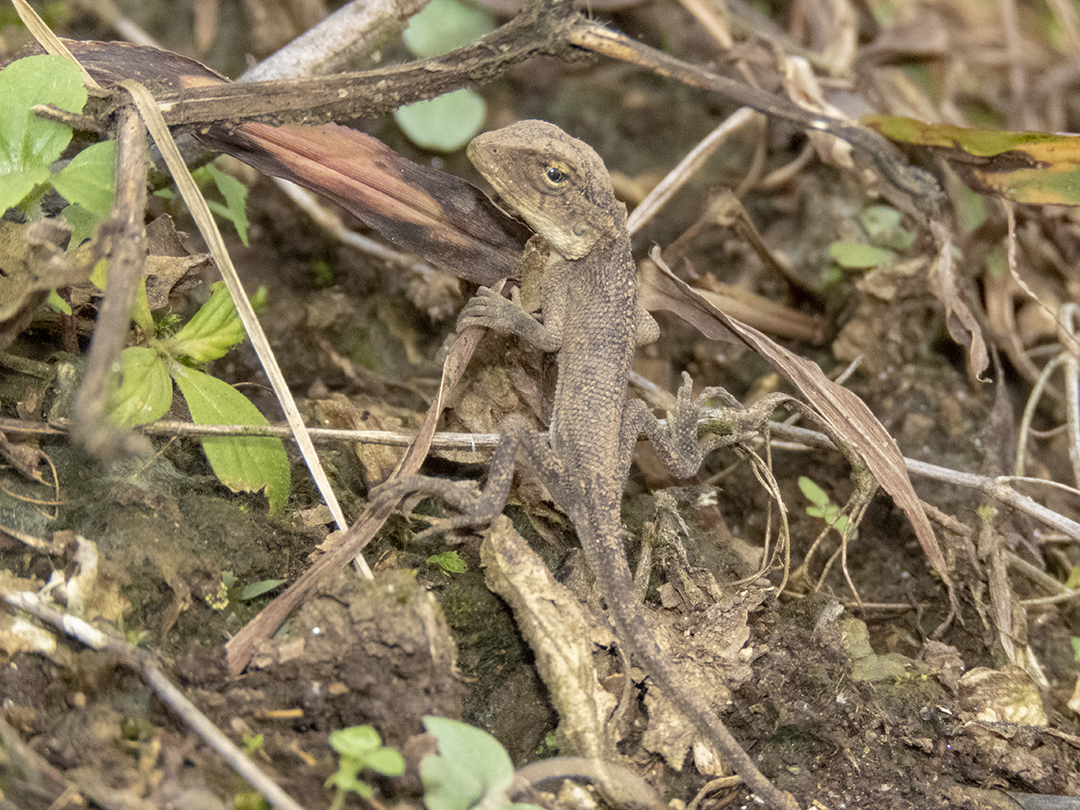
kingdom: Animalia
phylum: Chordata
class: Squamata
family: Agamidae
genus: Calotes
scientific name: Calotes versicolor
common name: Oriental garden lizard
